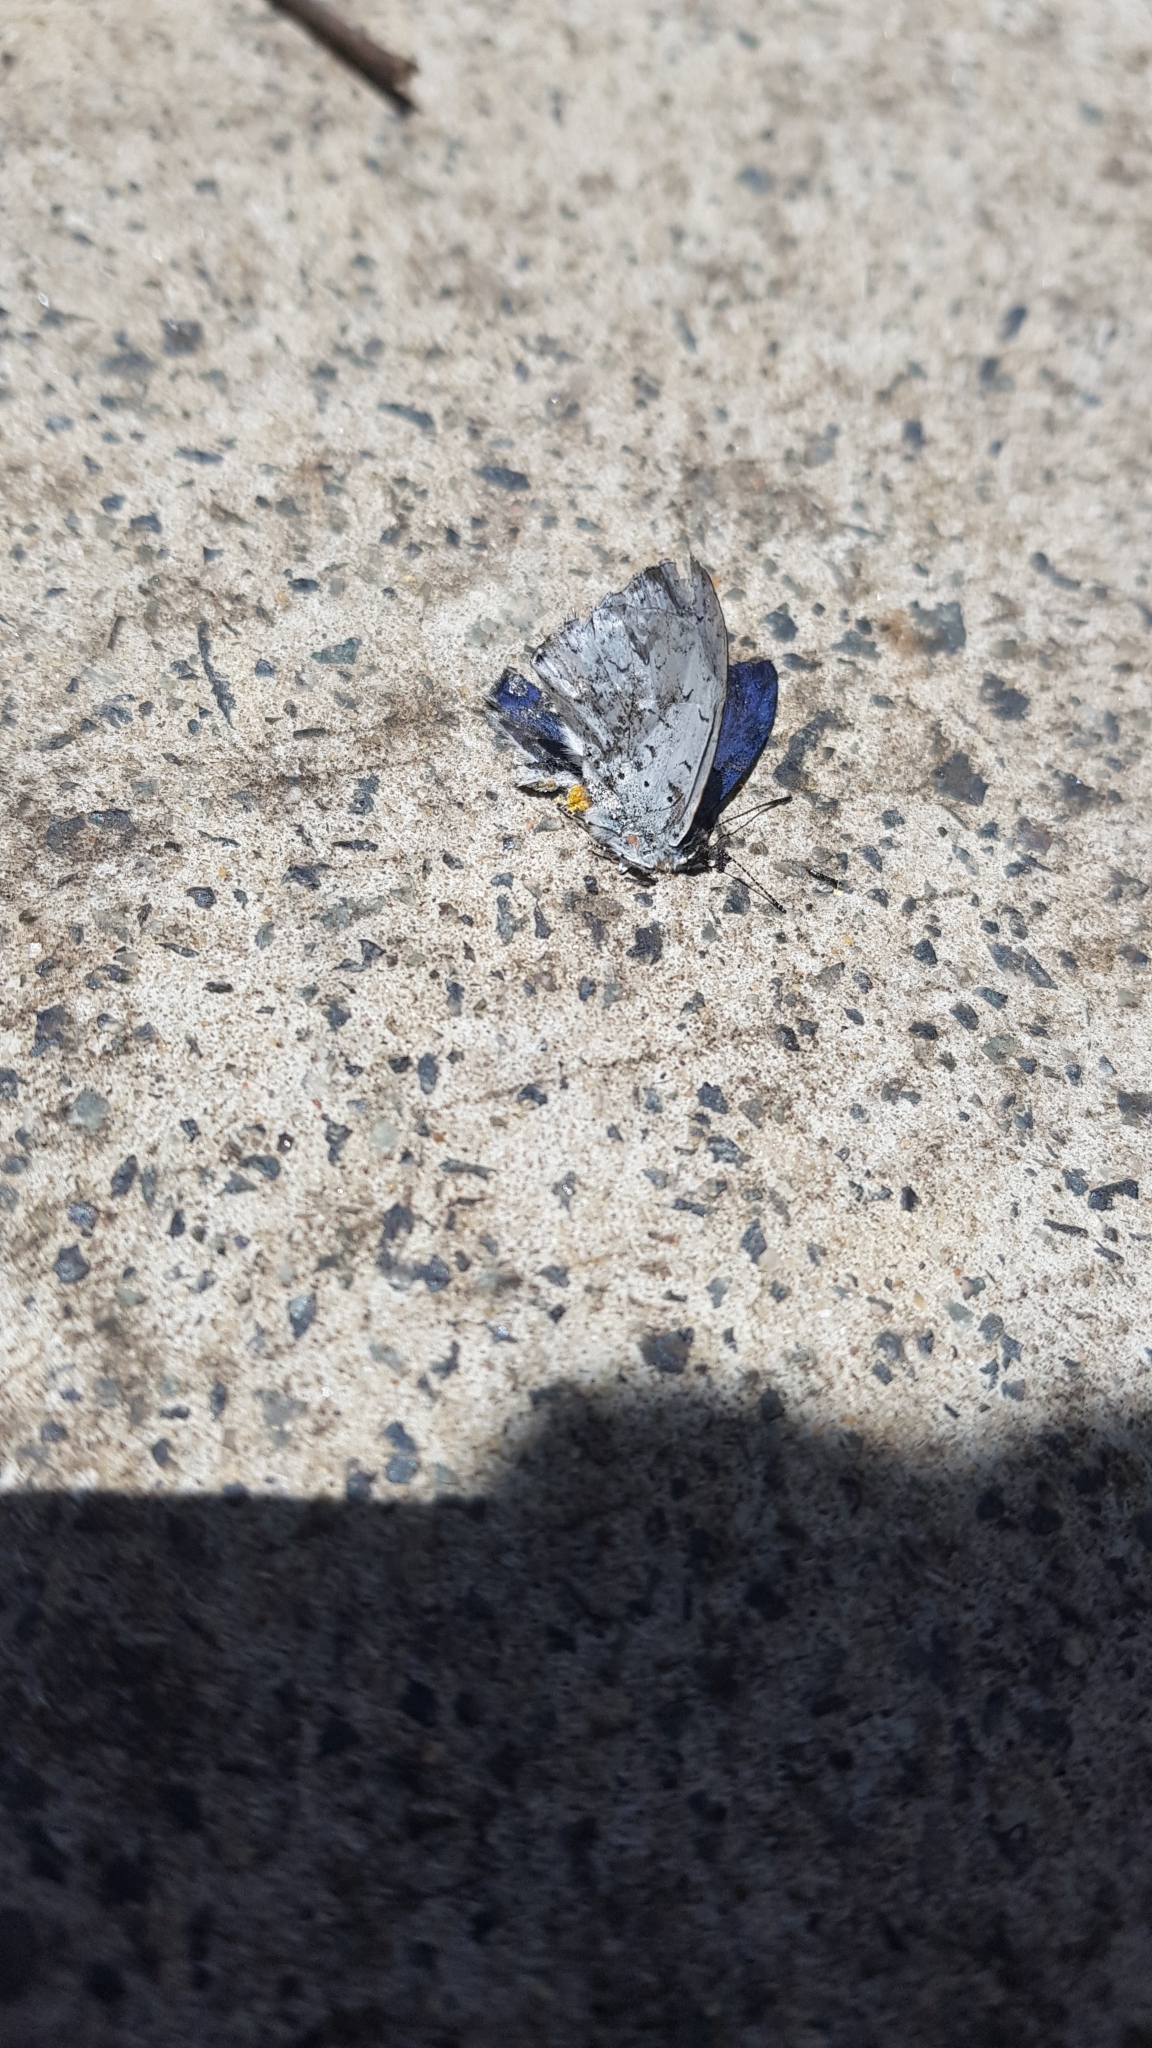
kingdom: Animalia
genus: Eirmocides
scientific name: Eirmocides
